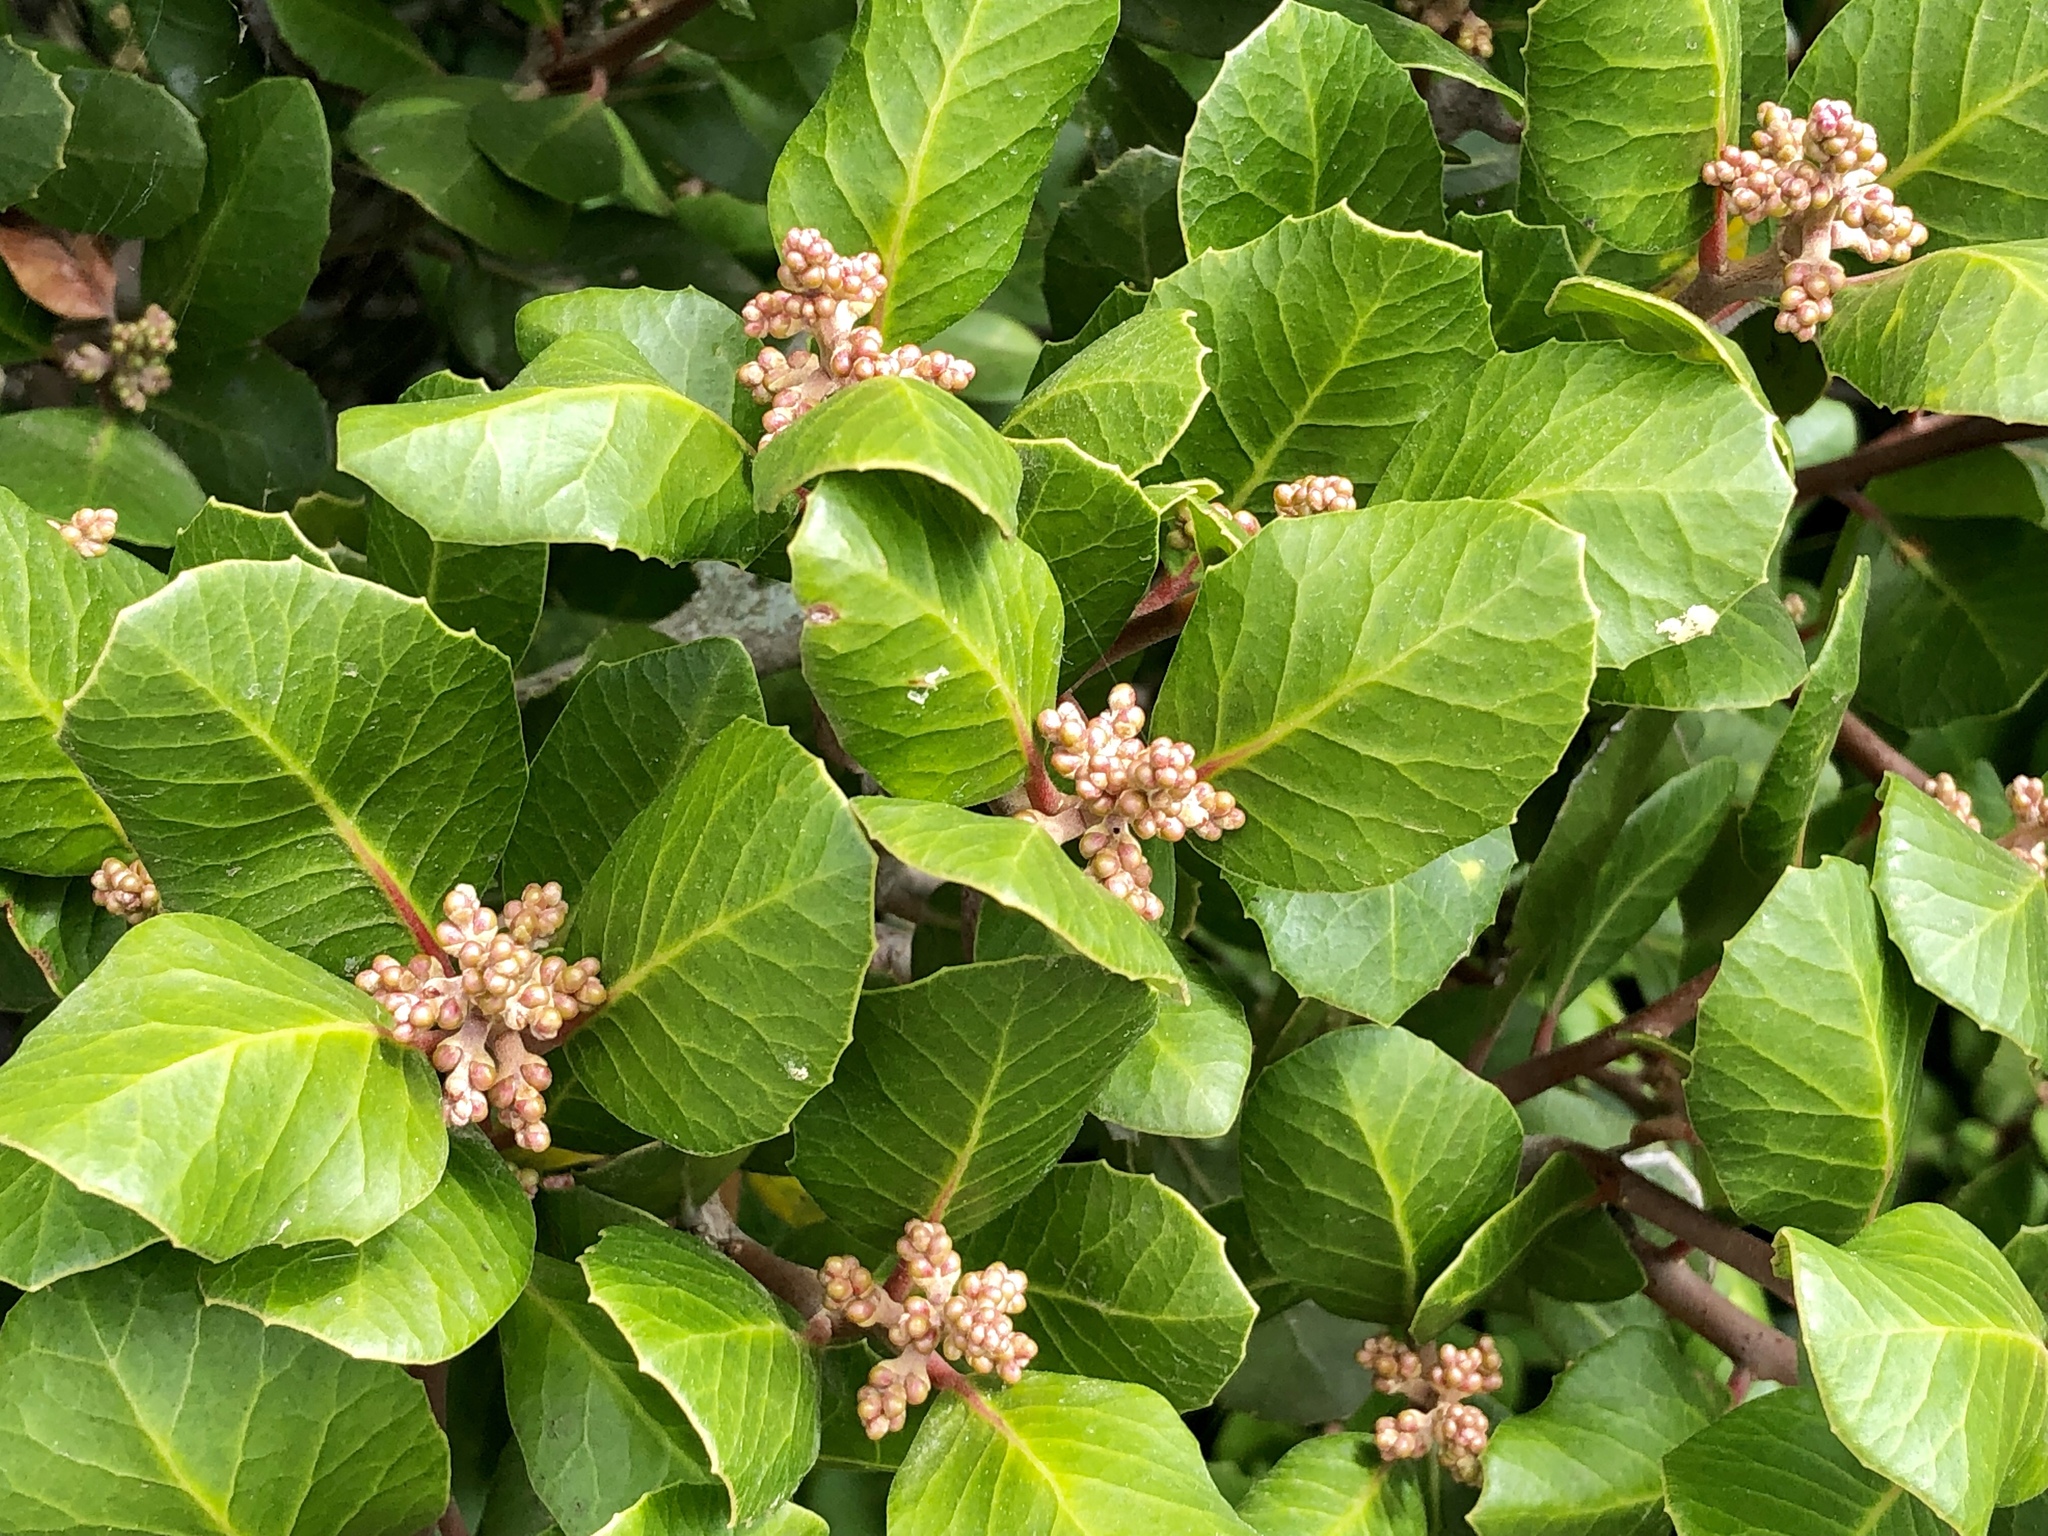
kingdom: Plantae
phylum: Tracheophyta
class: Magnoliopsida
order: Sapindales
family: Anacardiaceae
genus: Rhus
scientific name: Rhus integrifolia
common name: Lemonade sumac
